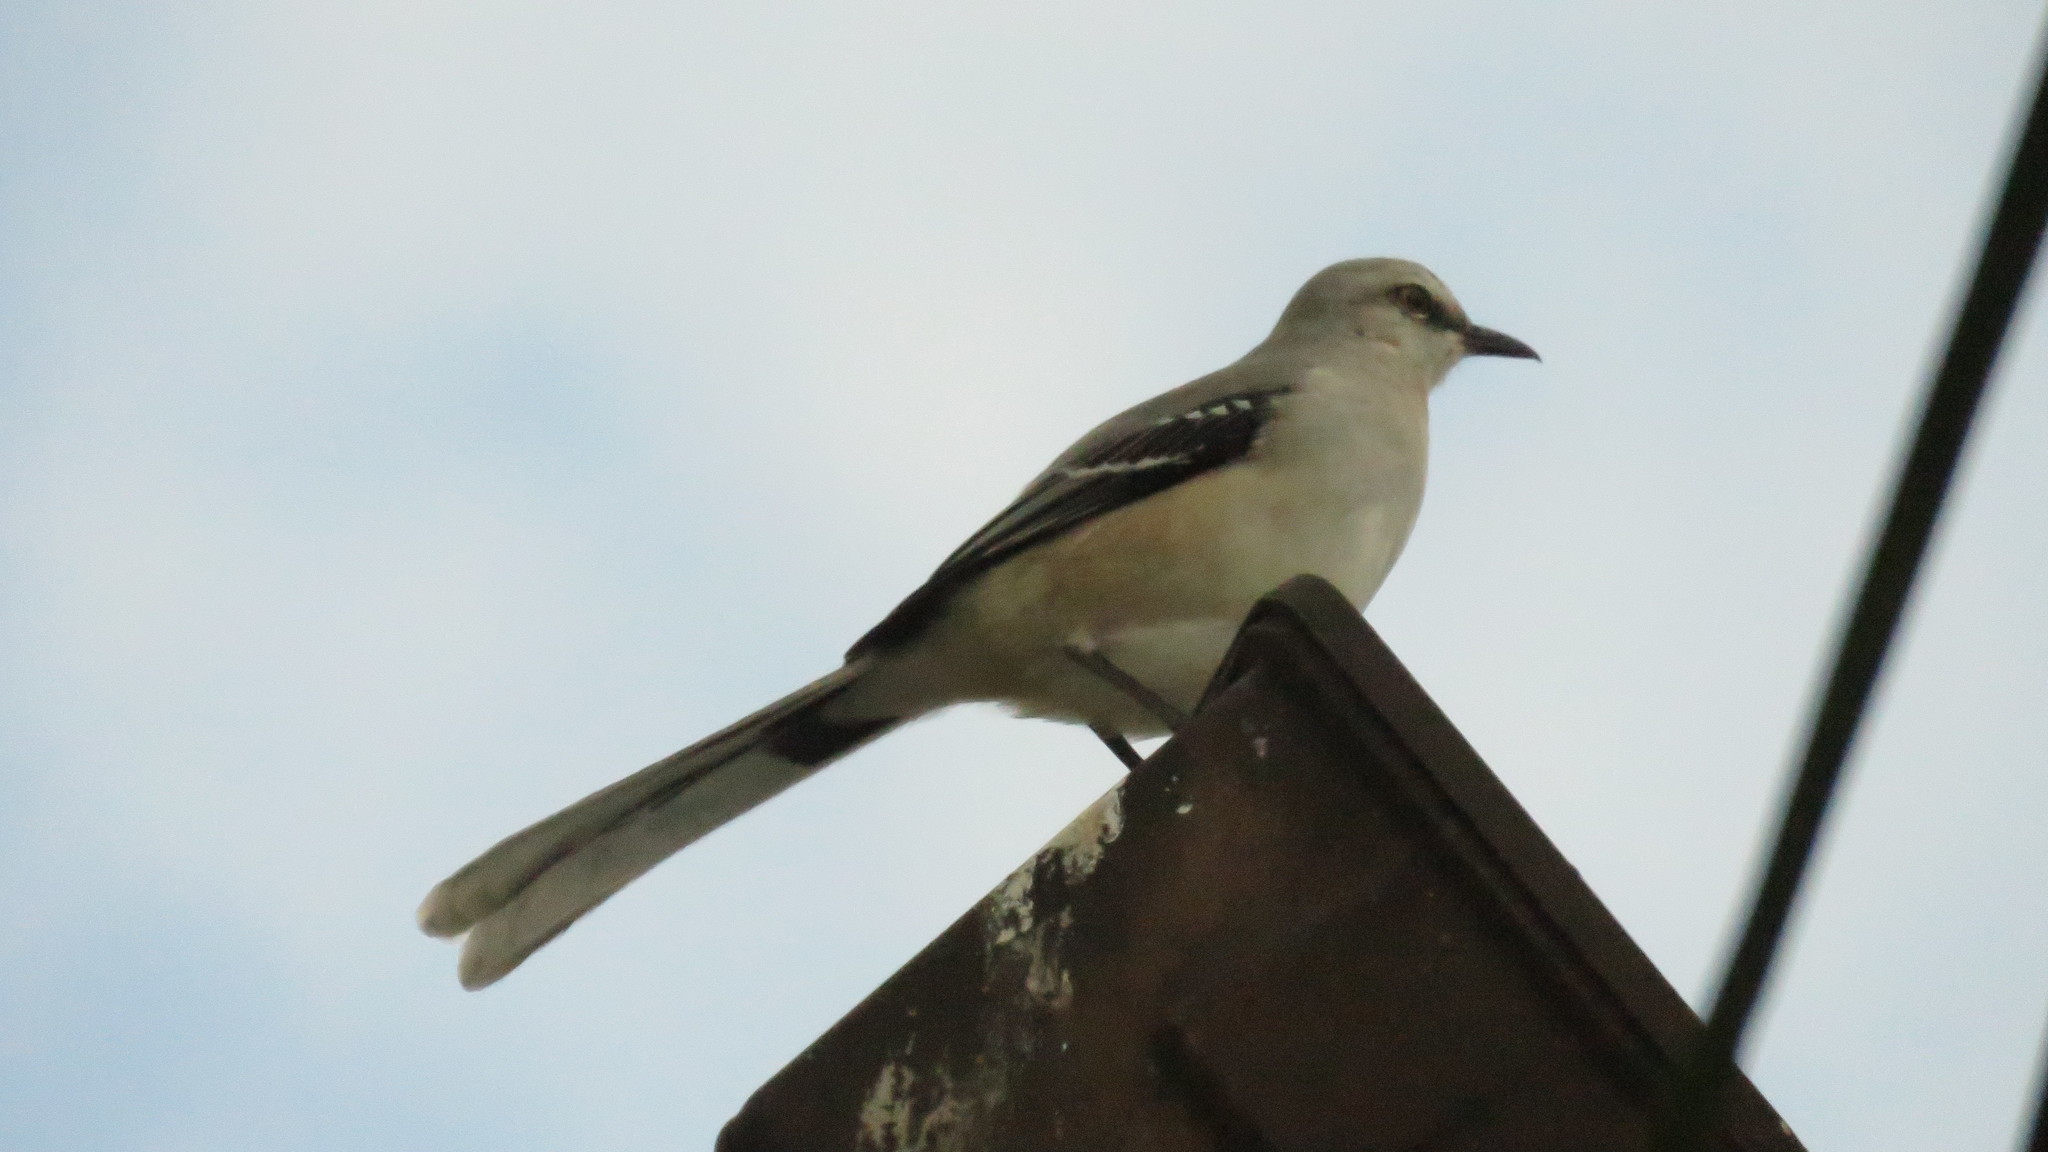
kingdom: Animalia
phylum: Chordata
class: Aves
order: Passeriformes
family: Mimidae
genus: Mimus
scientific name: Mimus gilvus
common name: Tropical mockingbird
